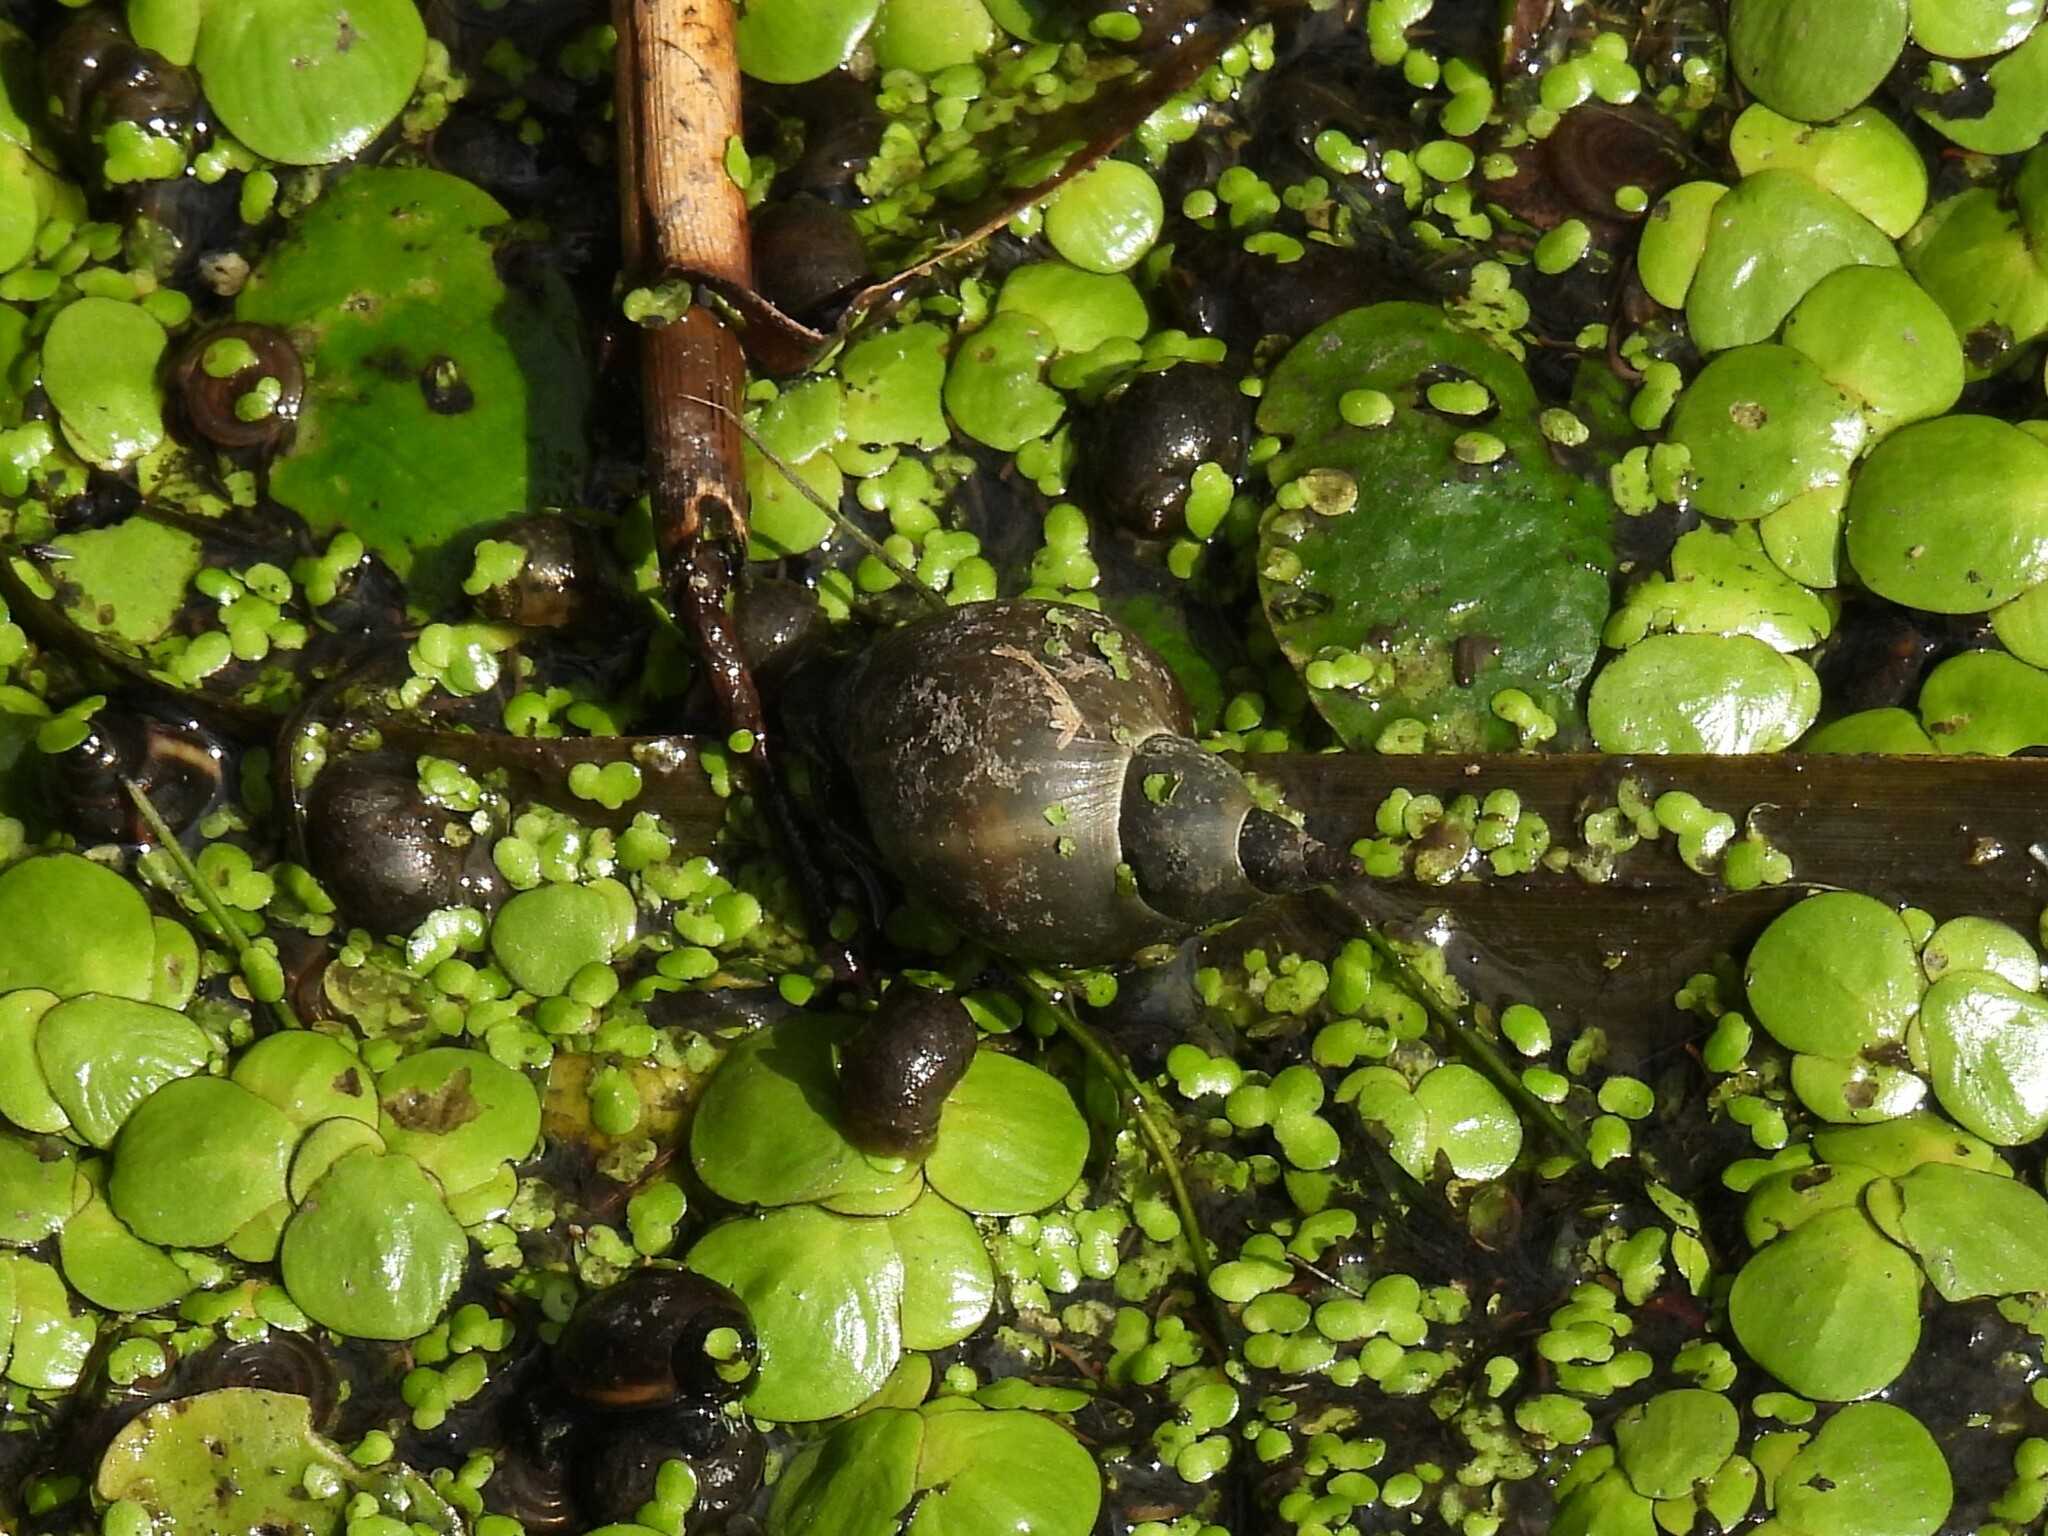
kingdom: Animalia
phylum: Mollusca
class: Gastropoda
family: Lymnaeidae
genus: Lymnaea
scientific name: Lymnaea stagnalis
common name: Great pond snail
